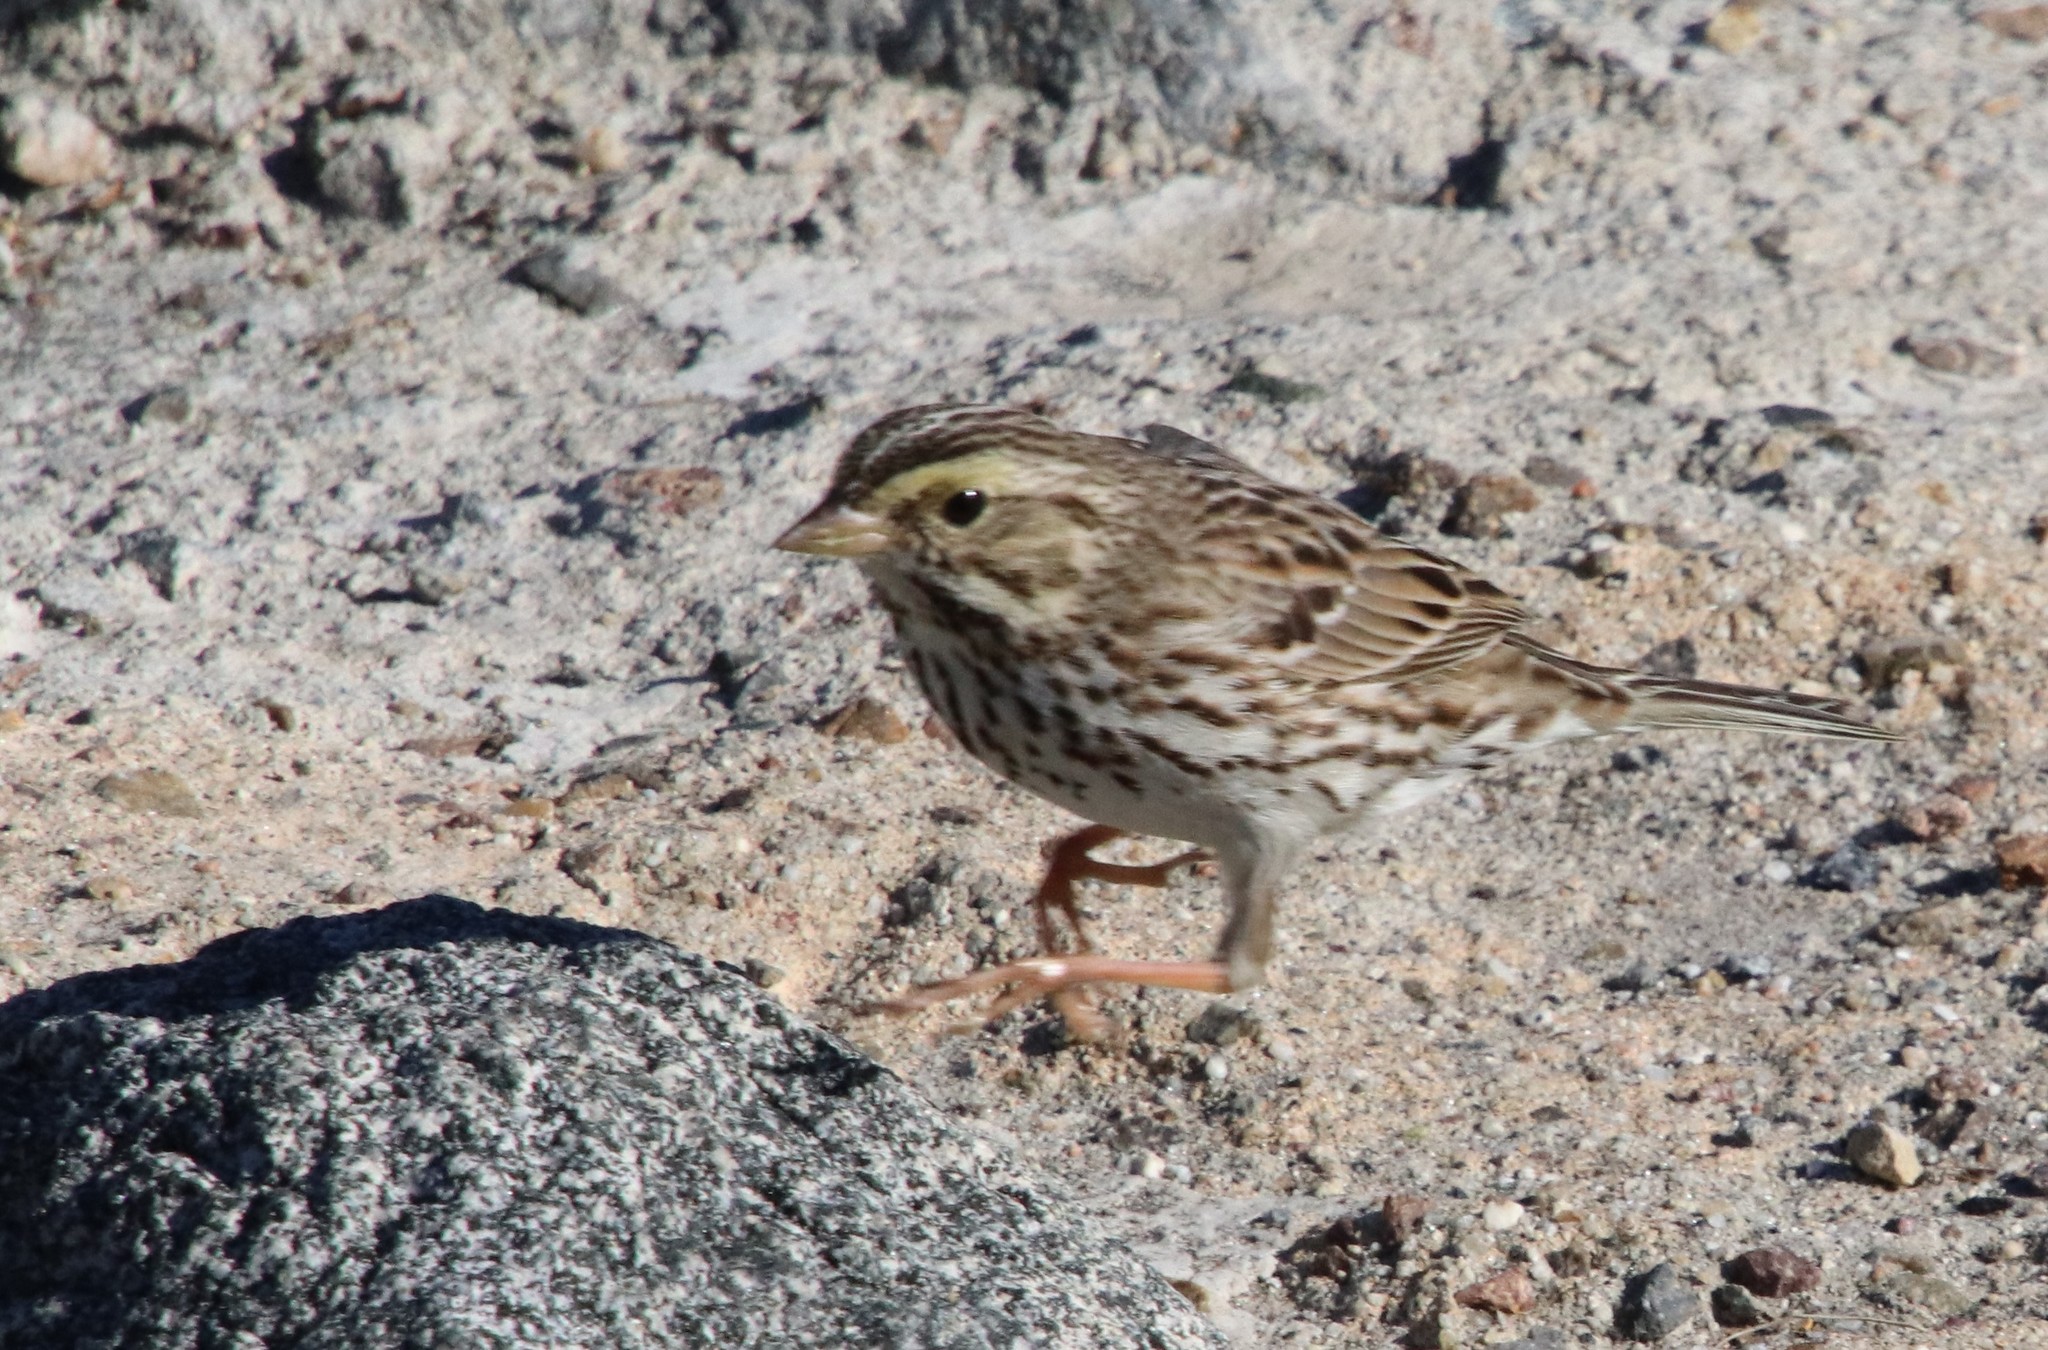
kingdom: Animalia
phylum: Chordata
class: Aves
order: Passeriformes
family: Passerellidae
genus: Passerculus
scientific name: Passerculus sandwichensis
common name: Savannah sparrow
